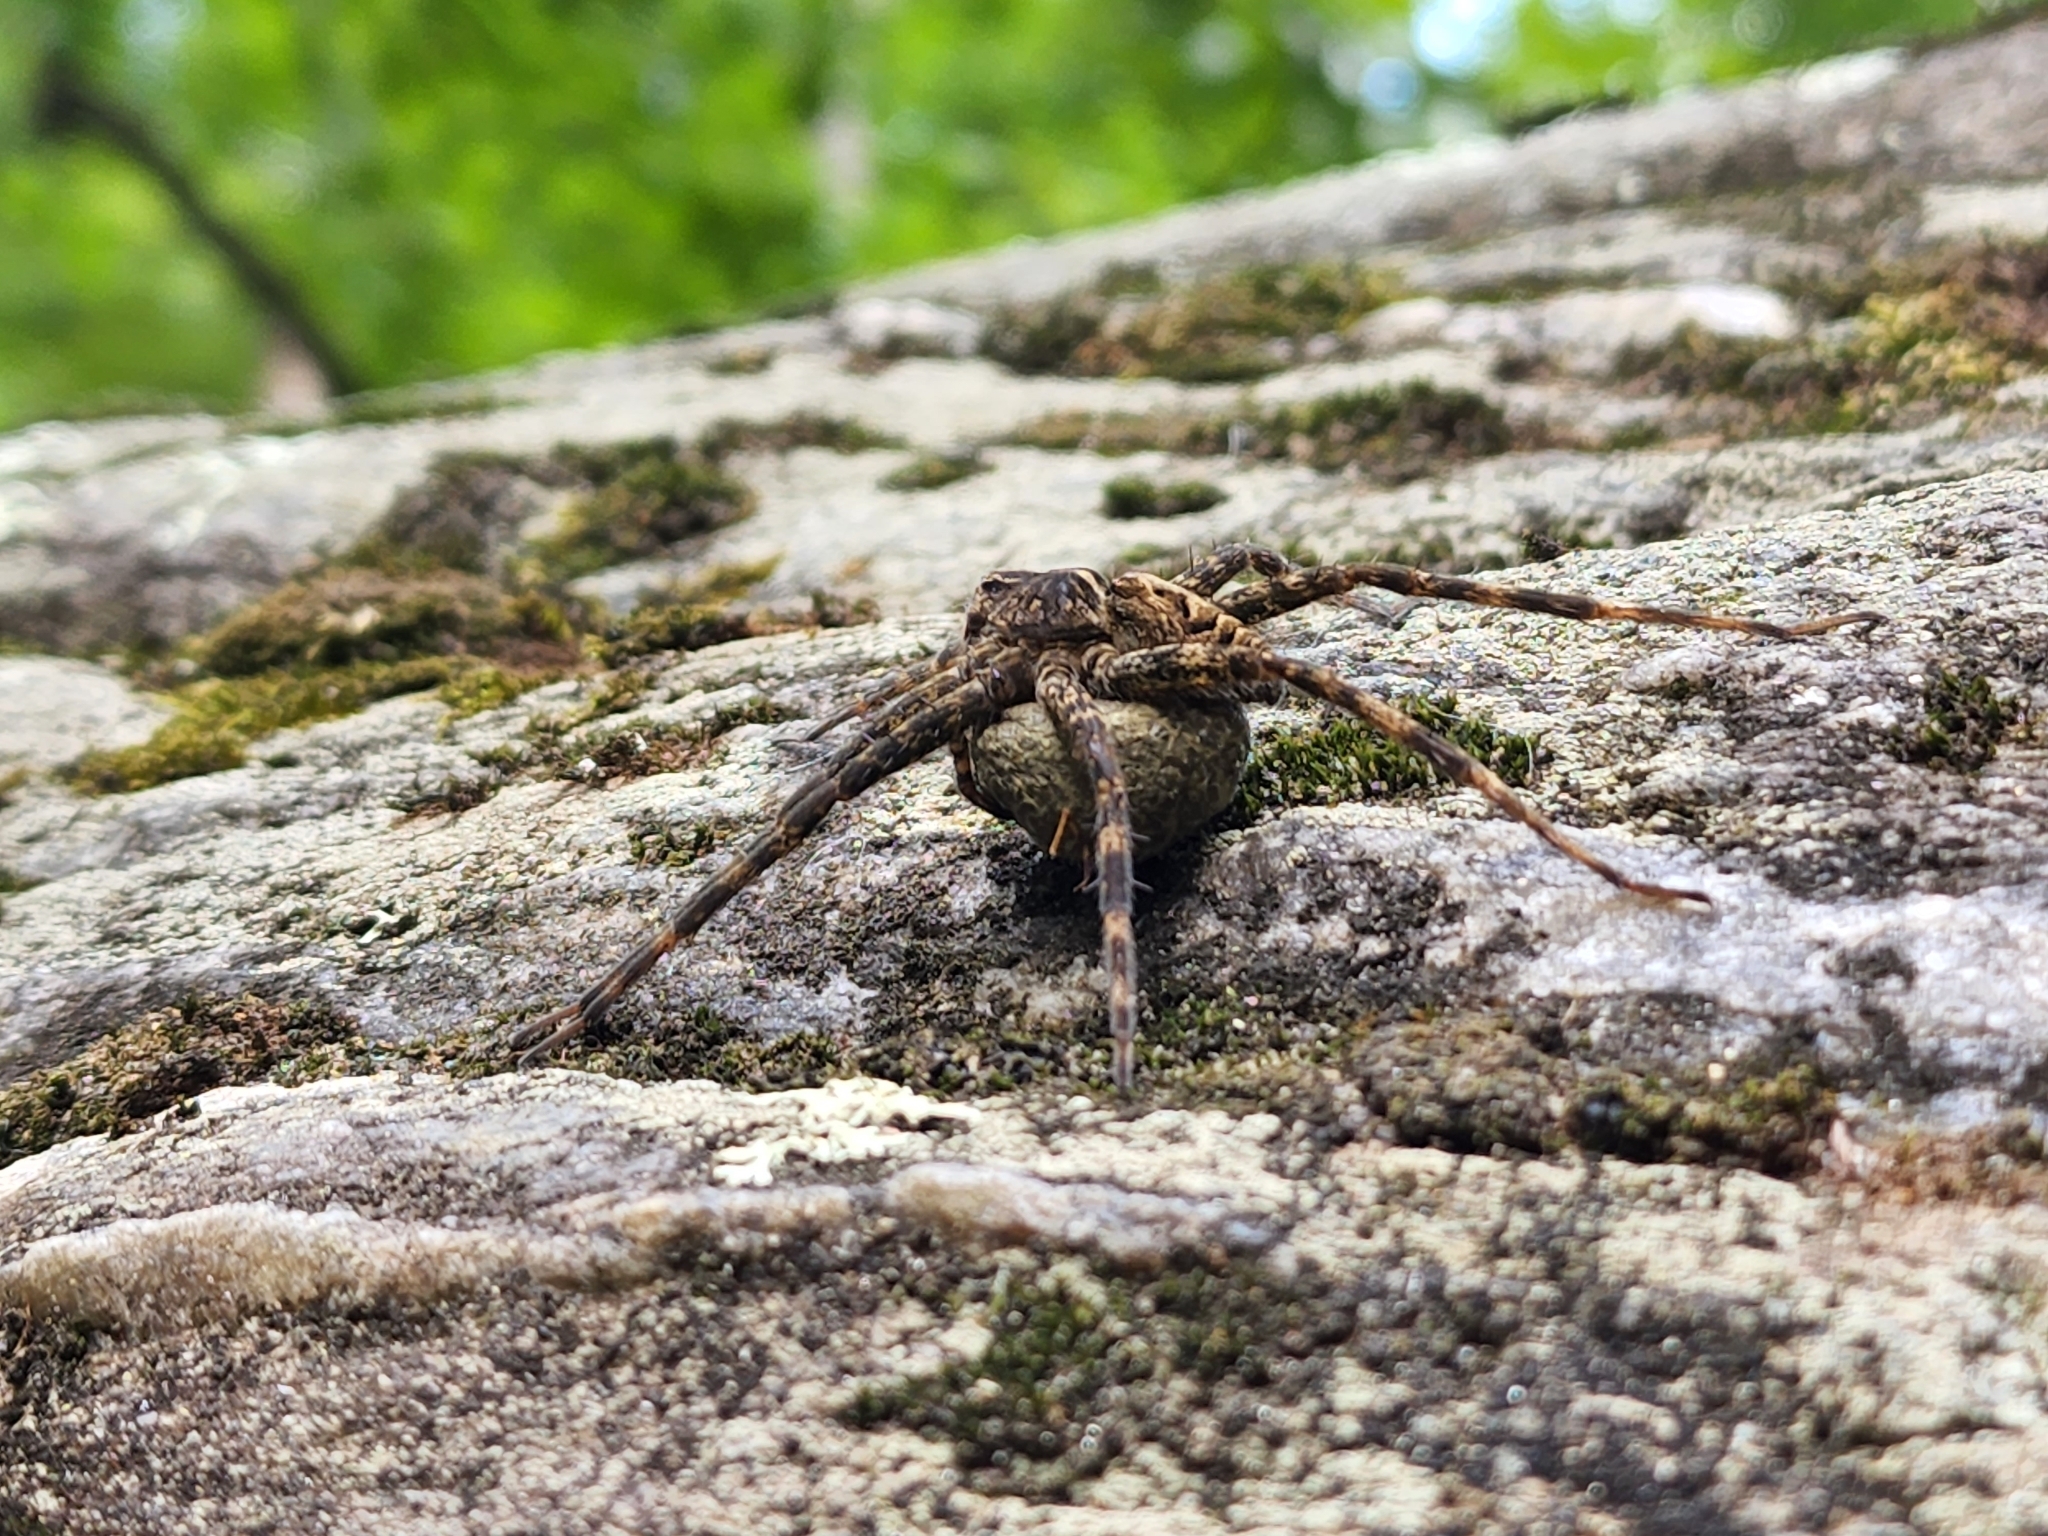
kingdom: Animalia
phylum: Arthropoda
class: Arachnida
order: Araneae
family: Pisauridae
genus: Dolomedes
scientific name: Dolomedes scriptus
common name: Striped fishing spider
